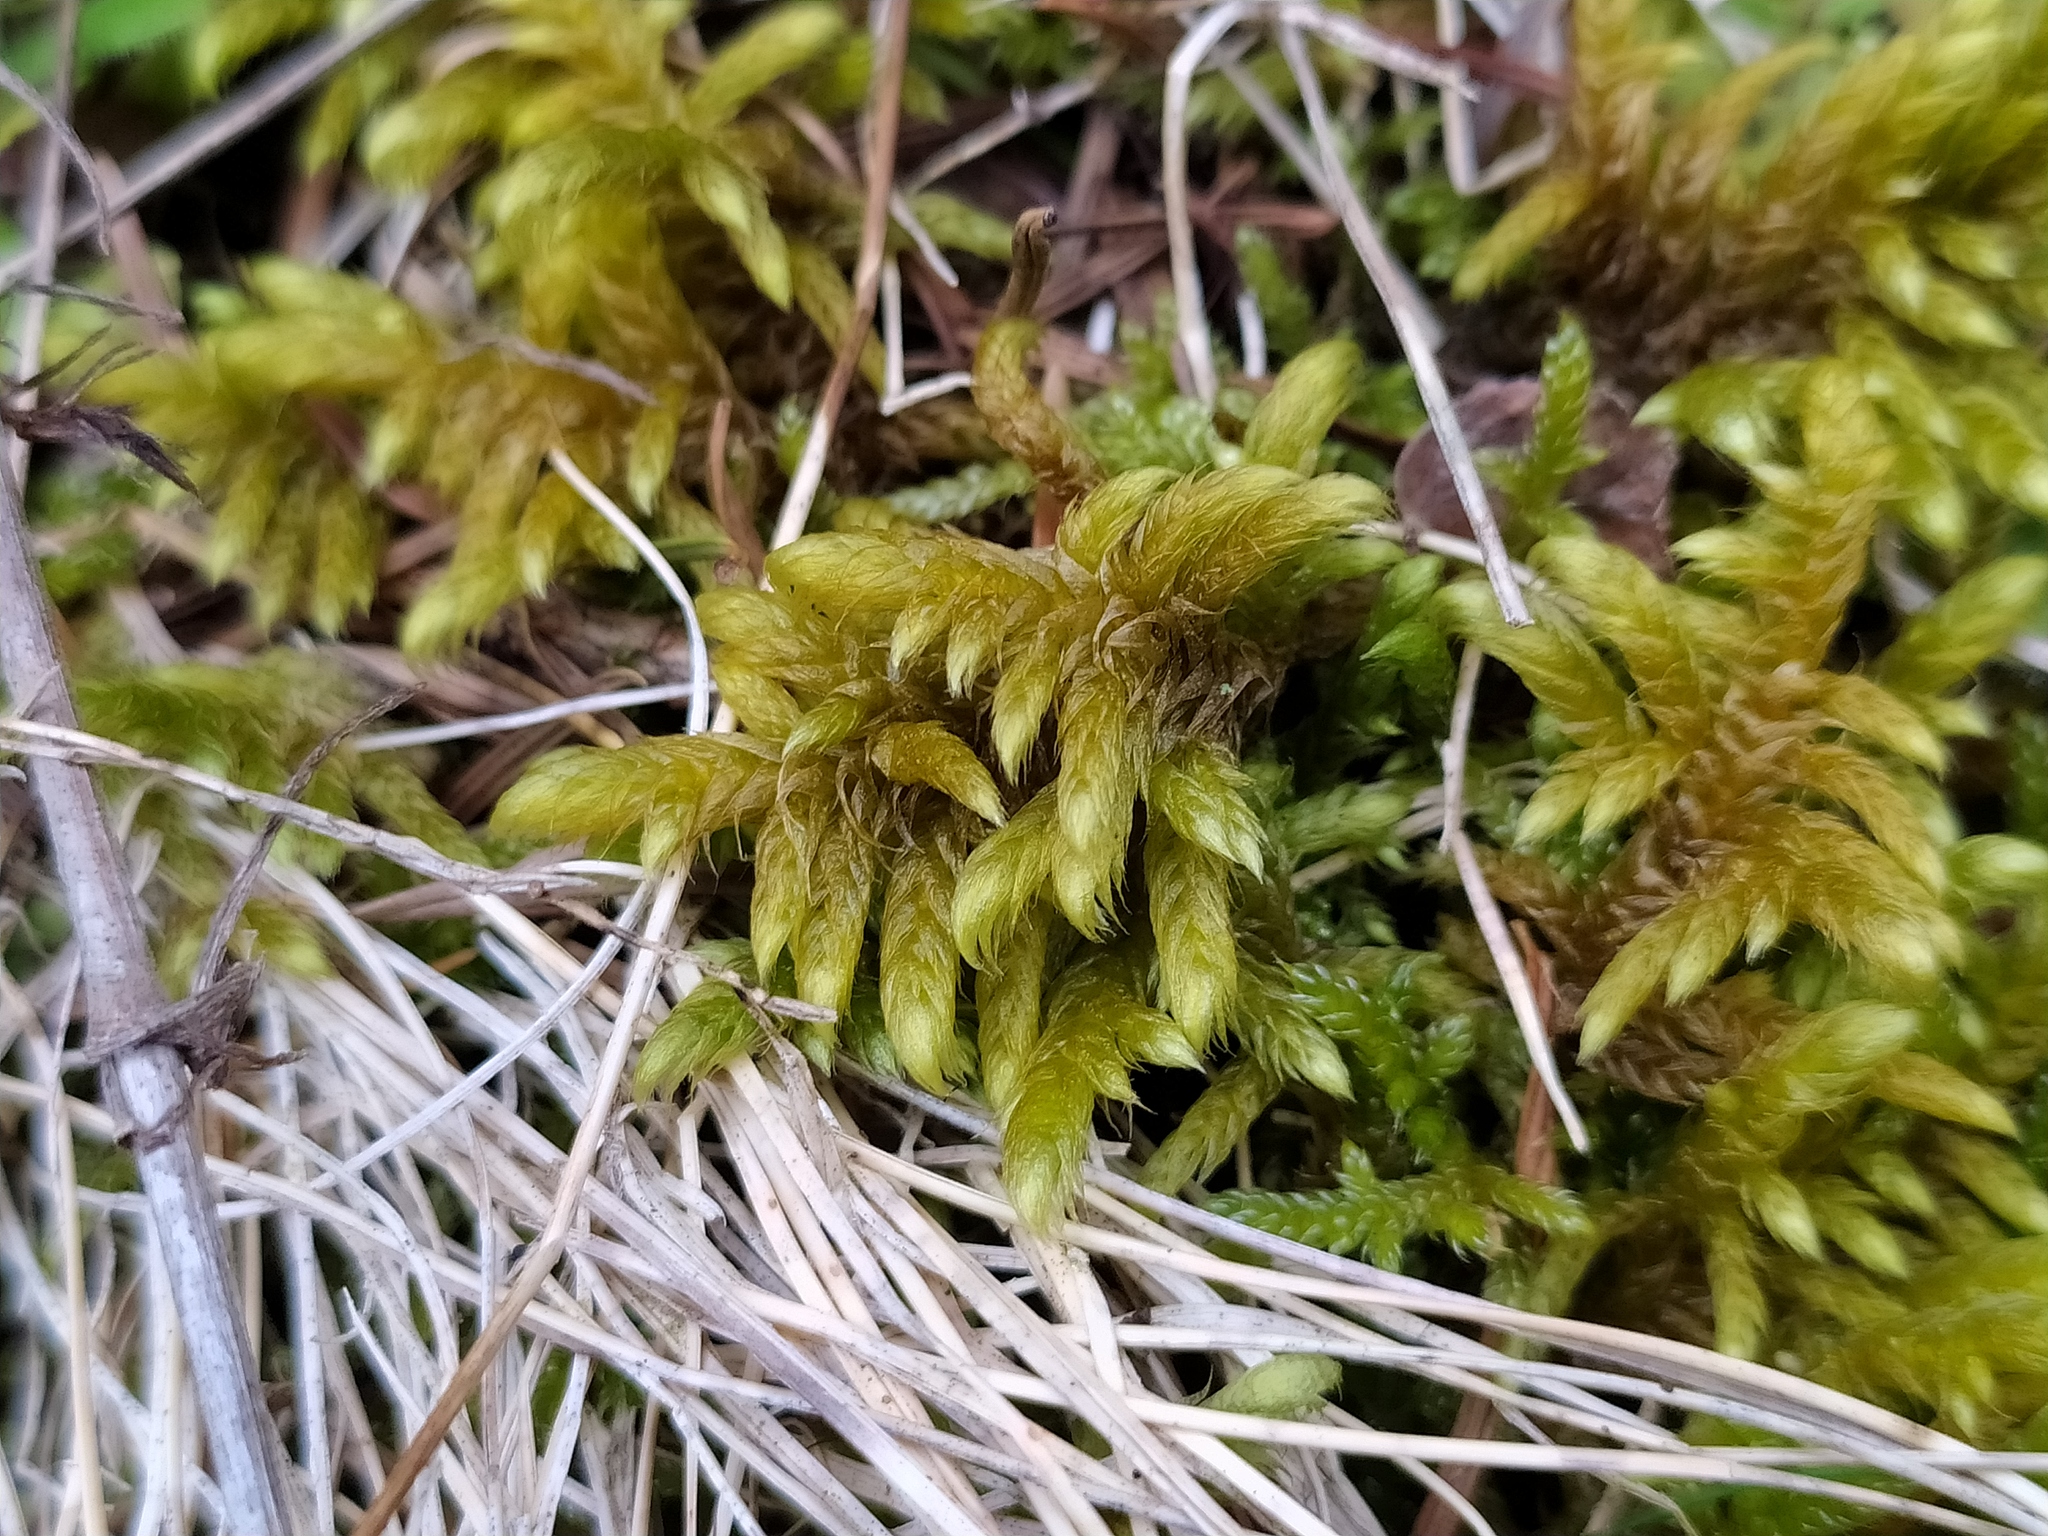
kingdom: Plantae
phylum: Bryophyta
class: Bryopsida
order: Hypnales
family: Rhytidiaceae
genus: Rhytidium
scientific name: Rhytidium rugosum
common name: Wrinkle-leaved moss
